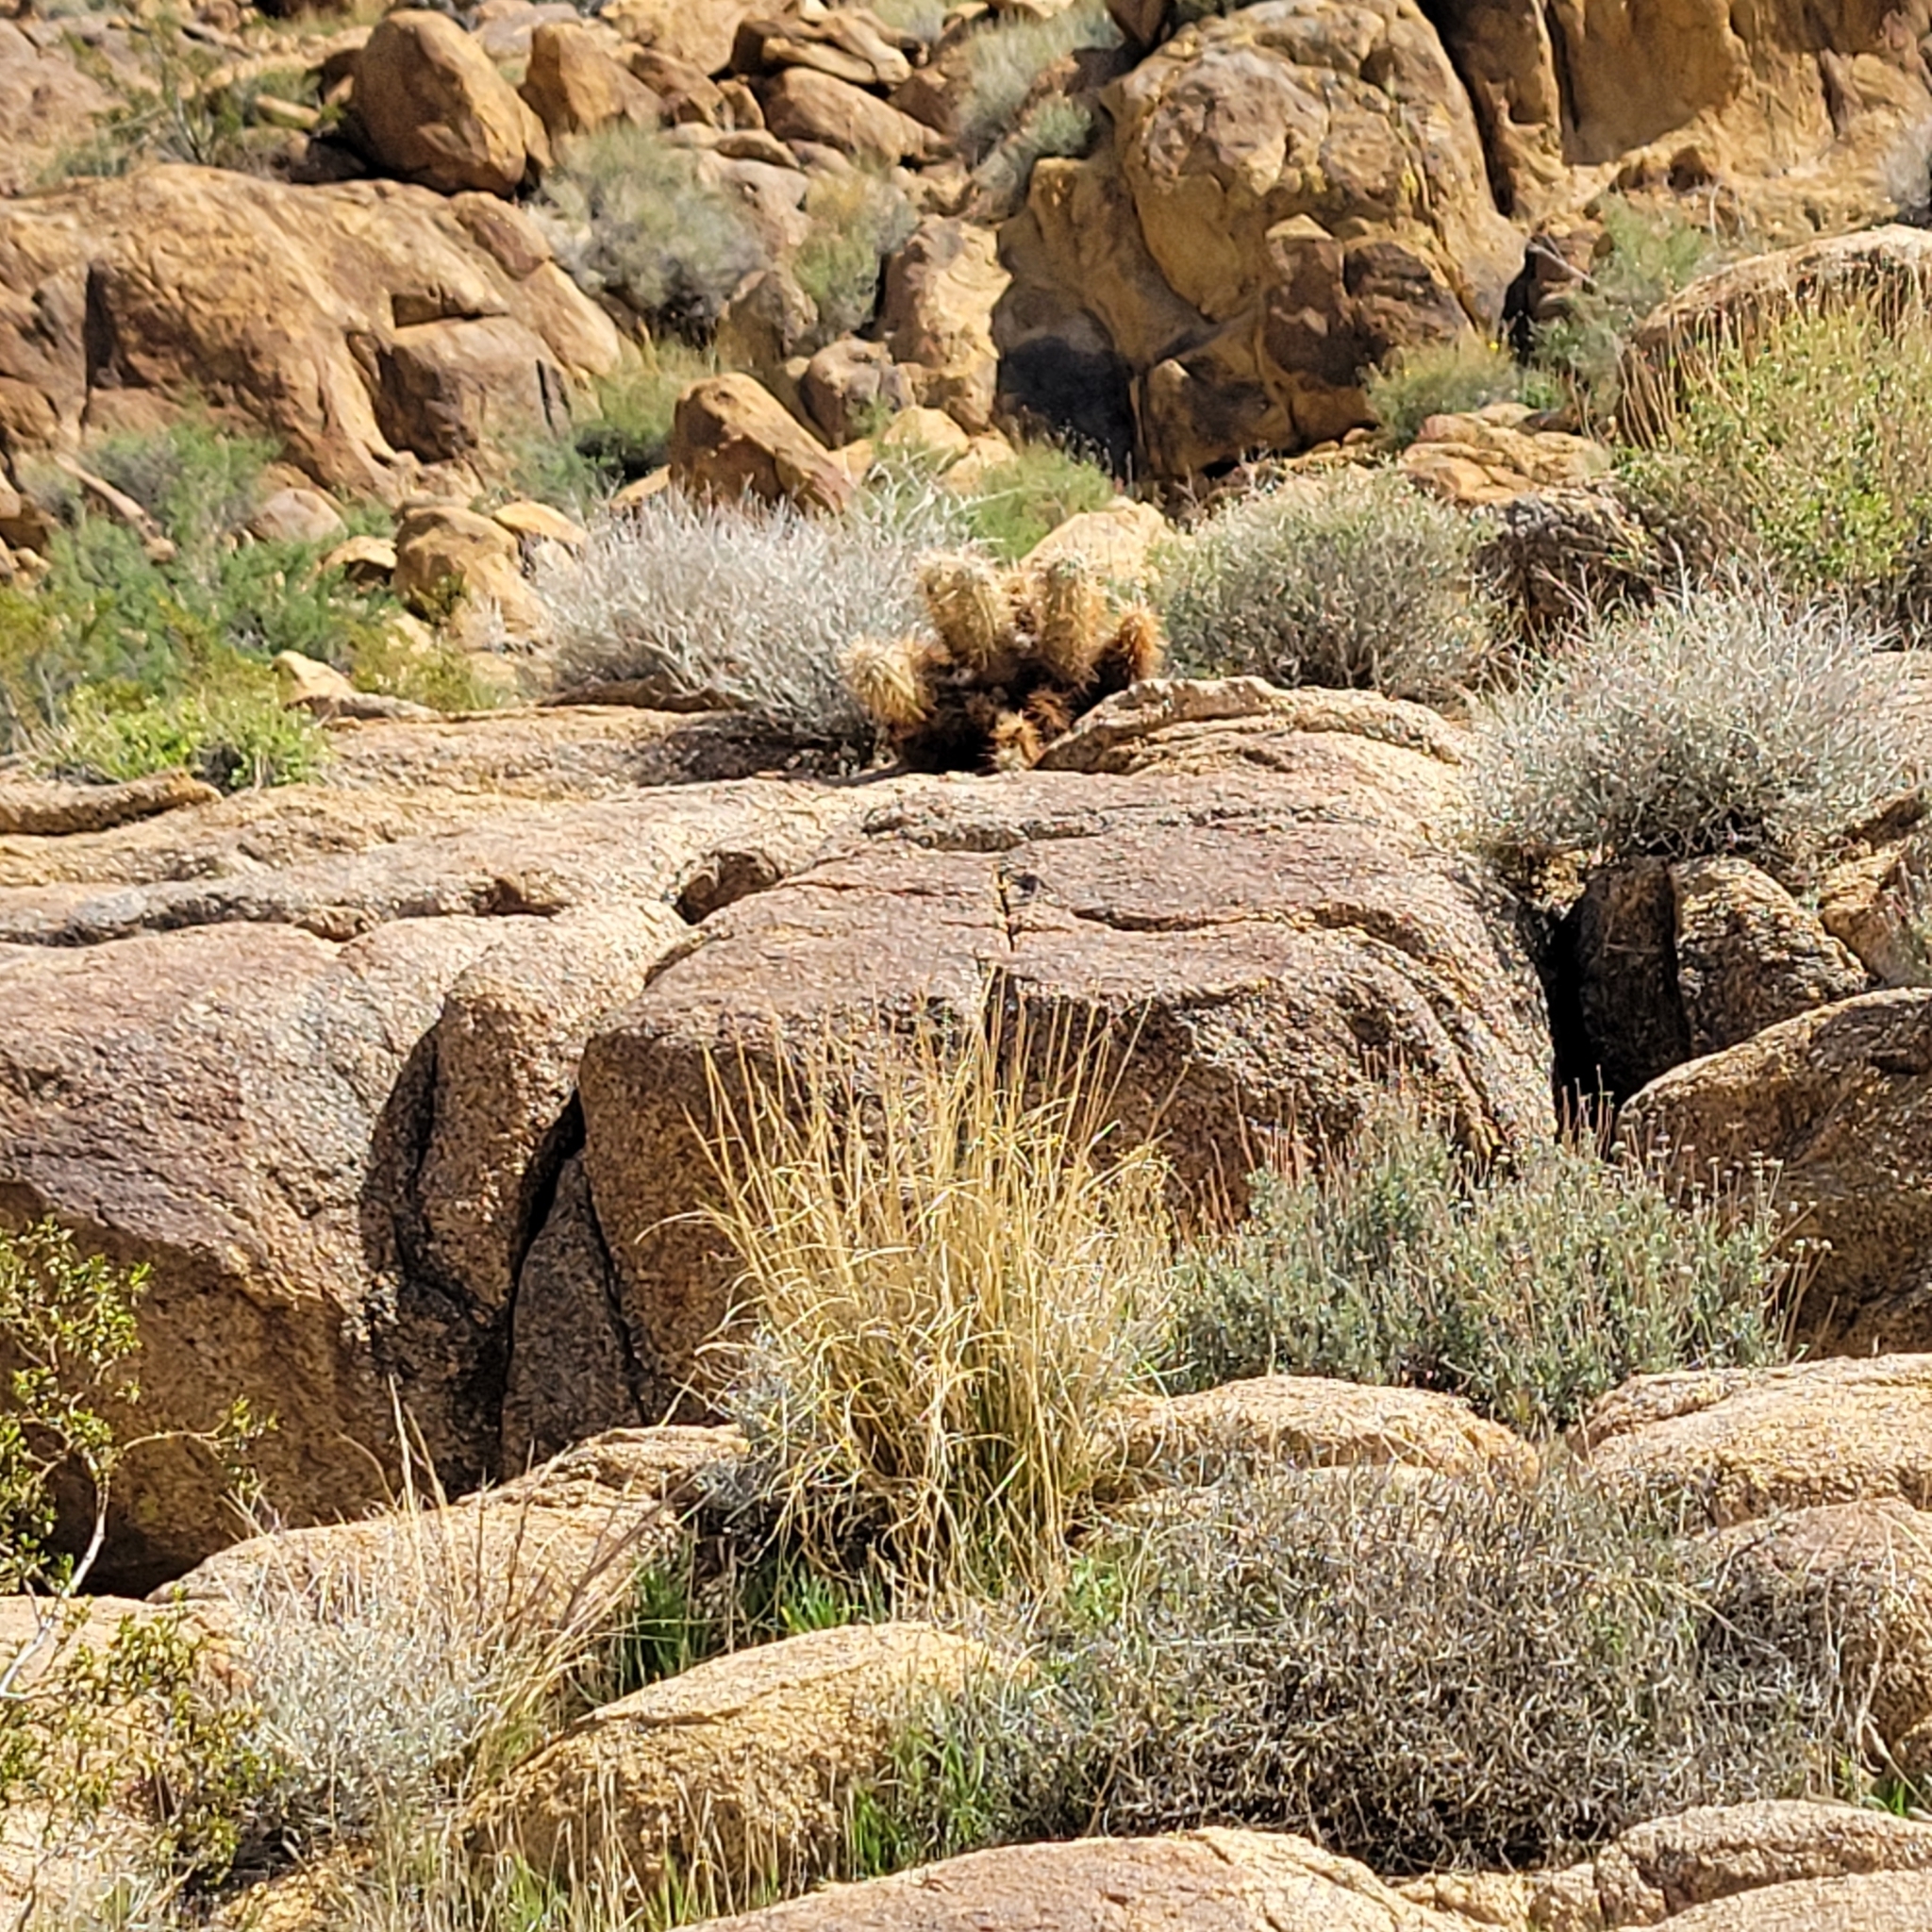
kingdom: Plantae
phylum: Tracheophyta
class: Magnoliopsida
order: Caryophyllales
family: Cactaceae
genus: Echinocereus
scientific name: Echinocereus engelmannii
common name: Engelmann's hedgehog cactus
